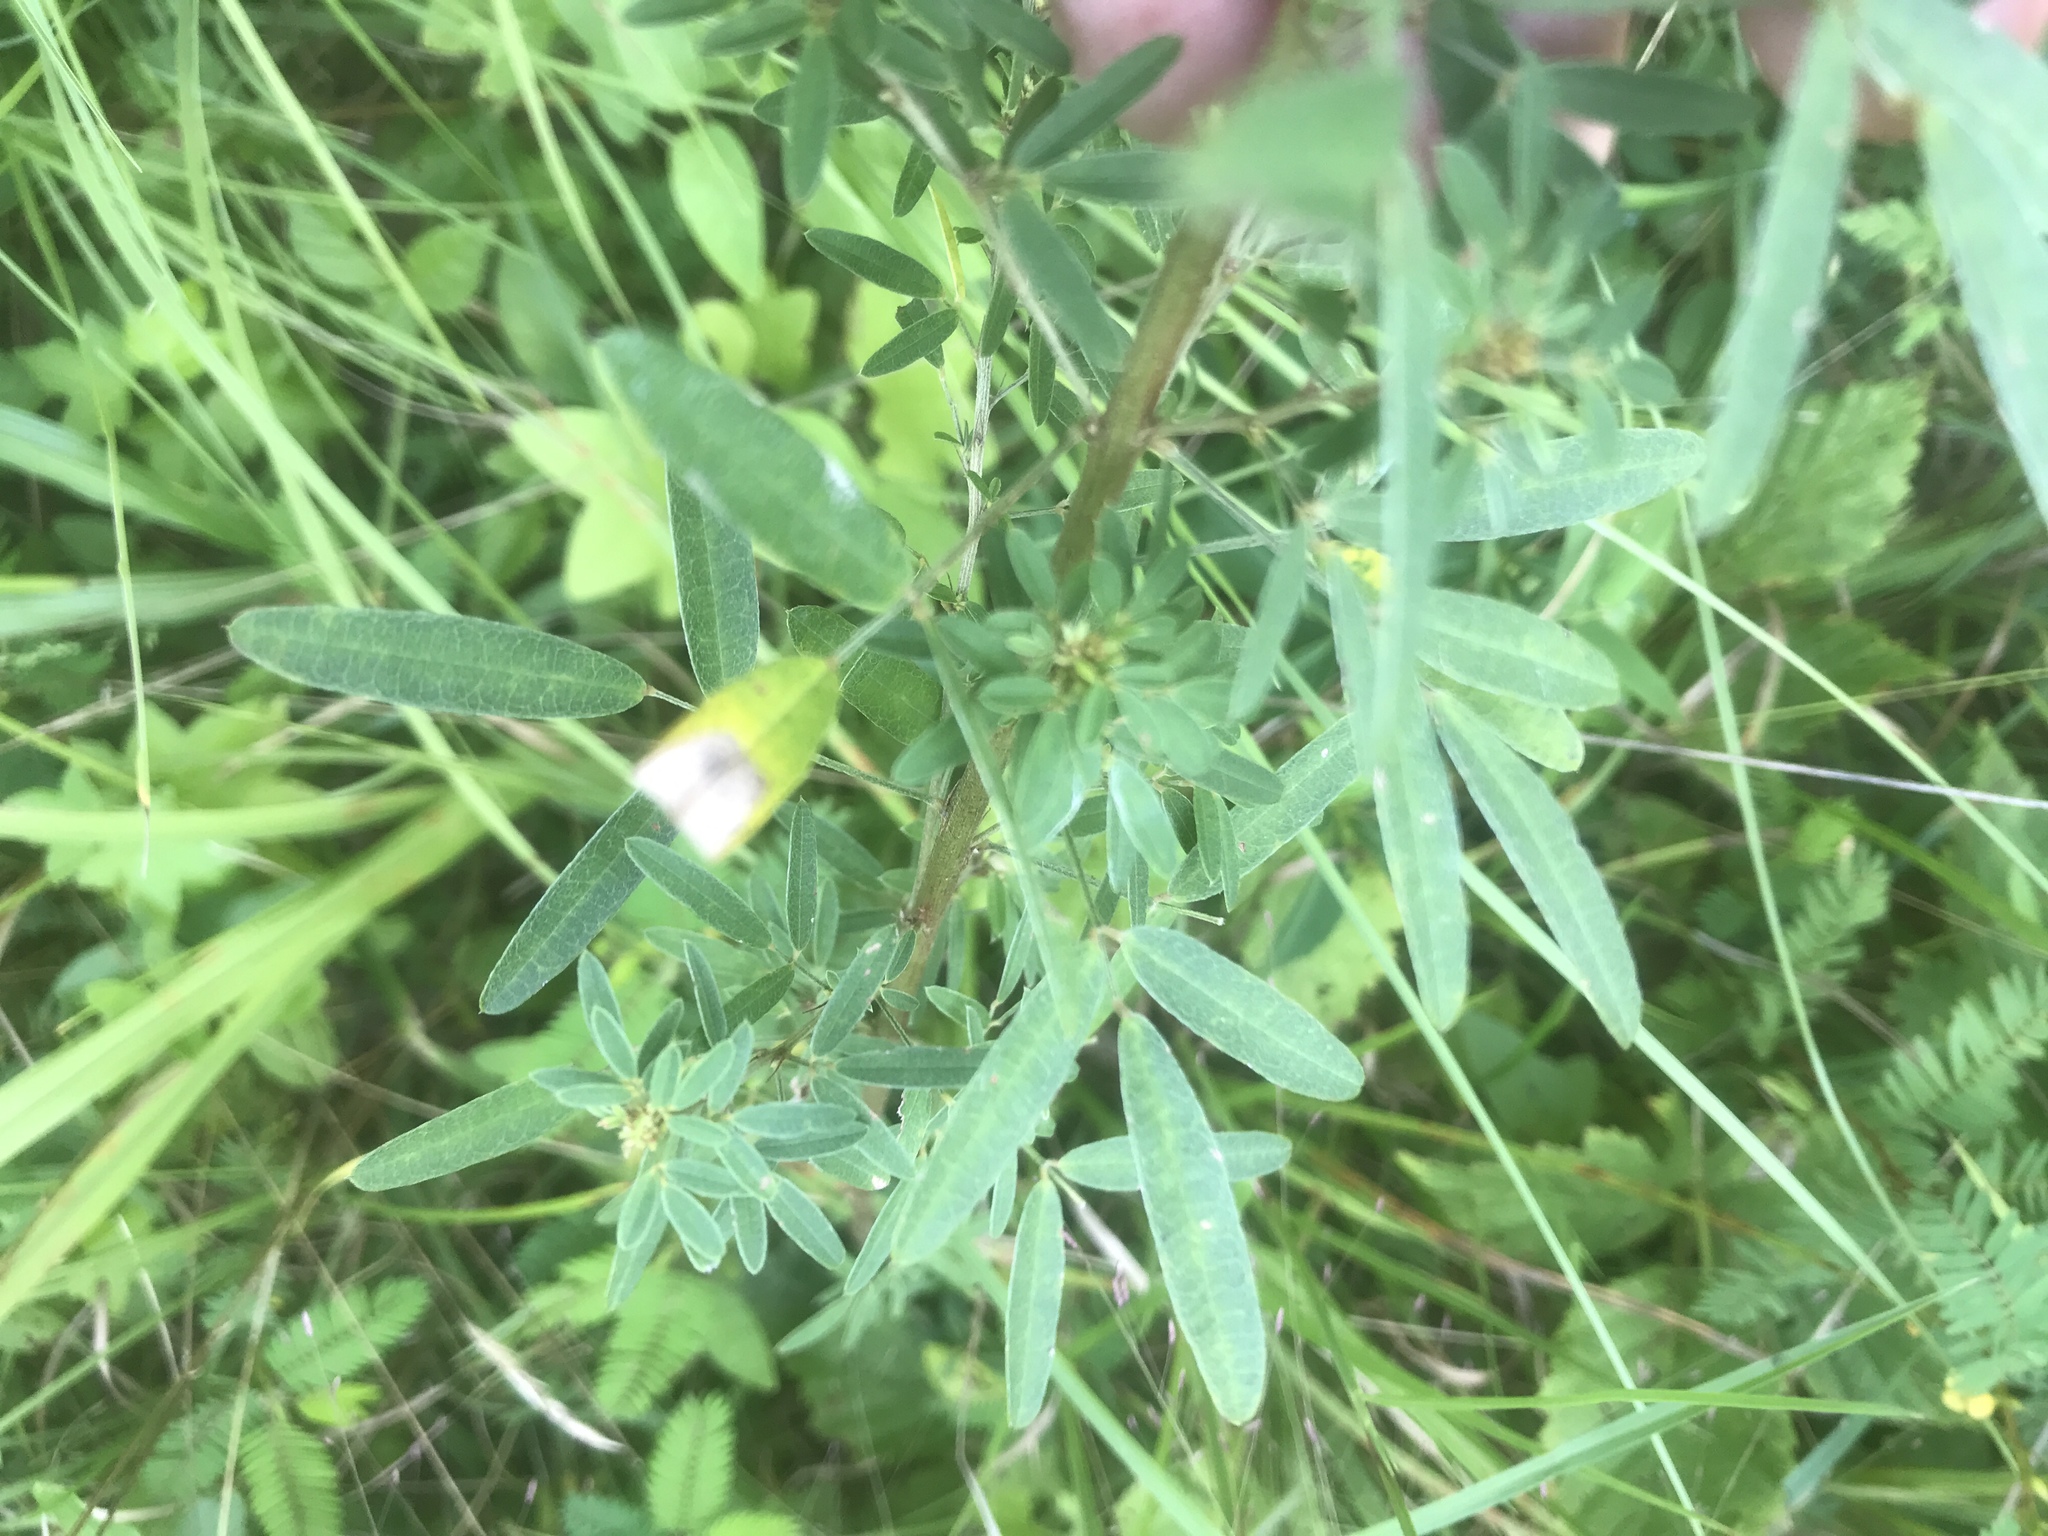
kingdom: Plantae
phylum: Tracheophyta
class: Magnoliopsida
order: Fabales
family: Fabaceae
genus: Lespedeza
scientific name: Lespedeza virginica
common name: Slender bush-clover
